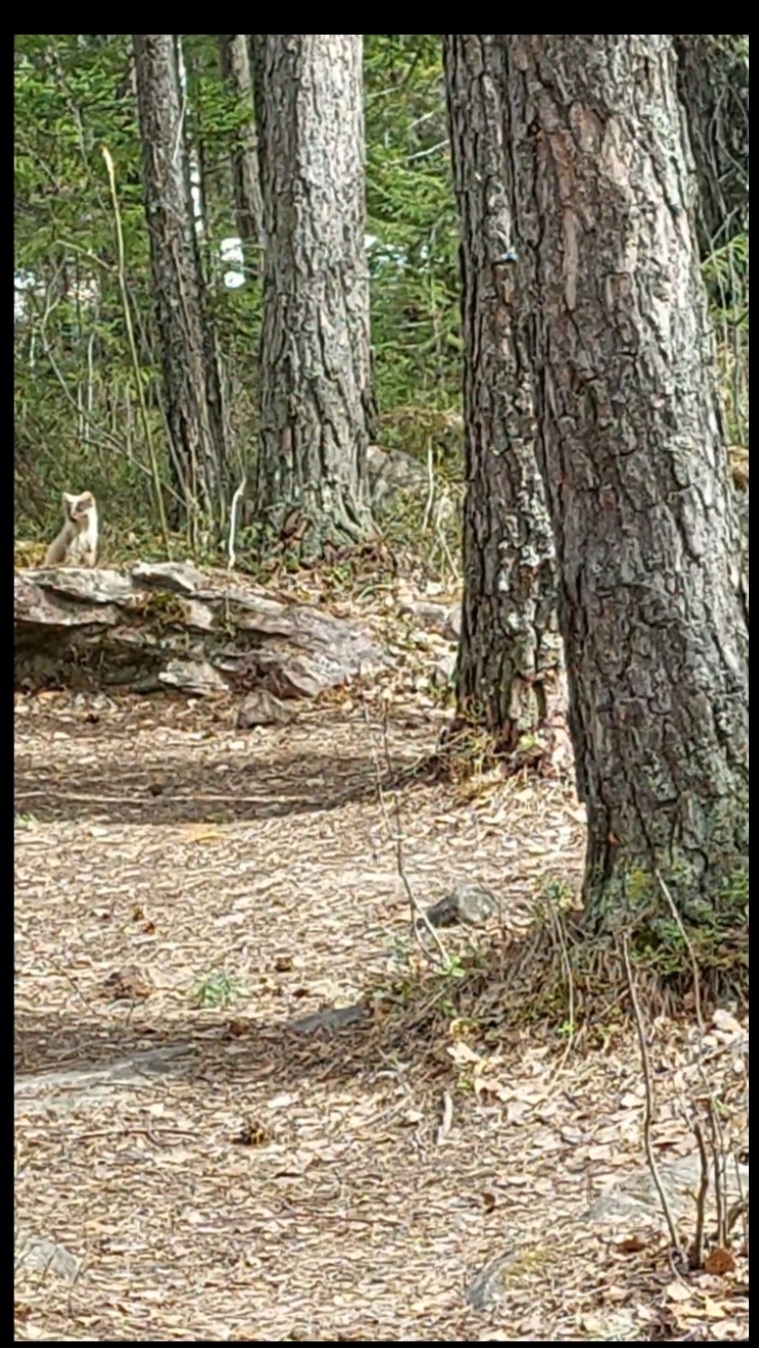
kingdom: Animalia
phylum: Chordata
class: Mammalia
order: Carnivora
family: Mustelidae
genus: Martes
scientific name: Martes martes
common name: European pine marten
